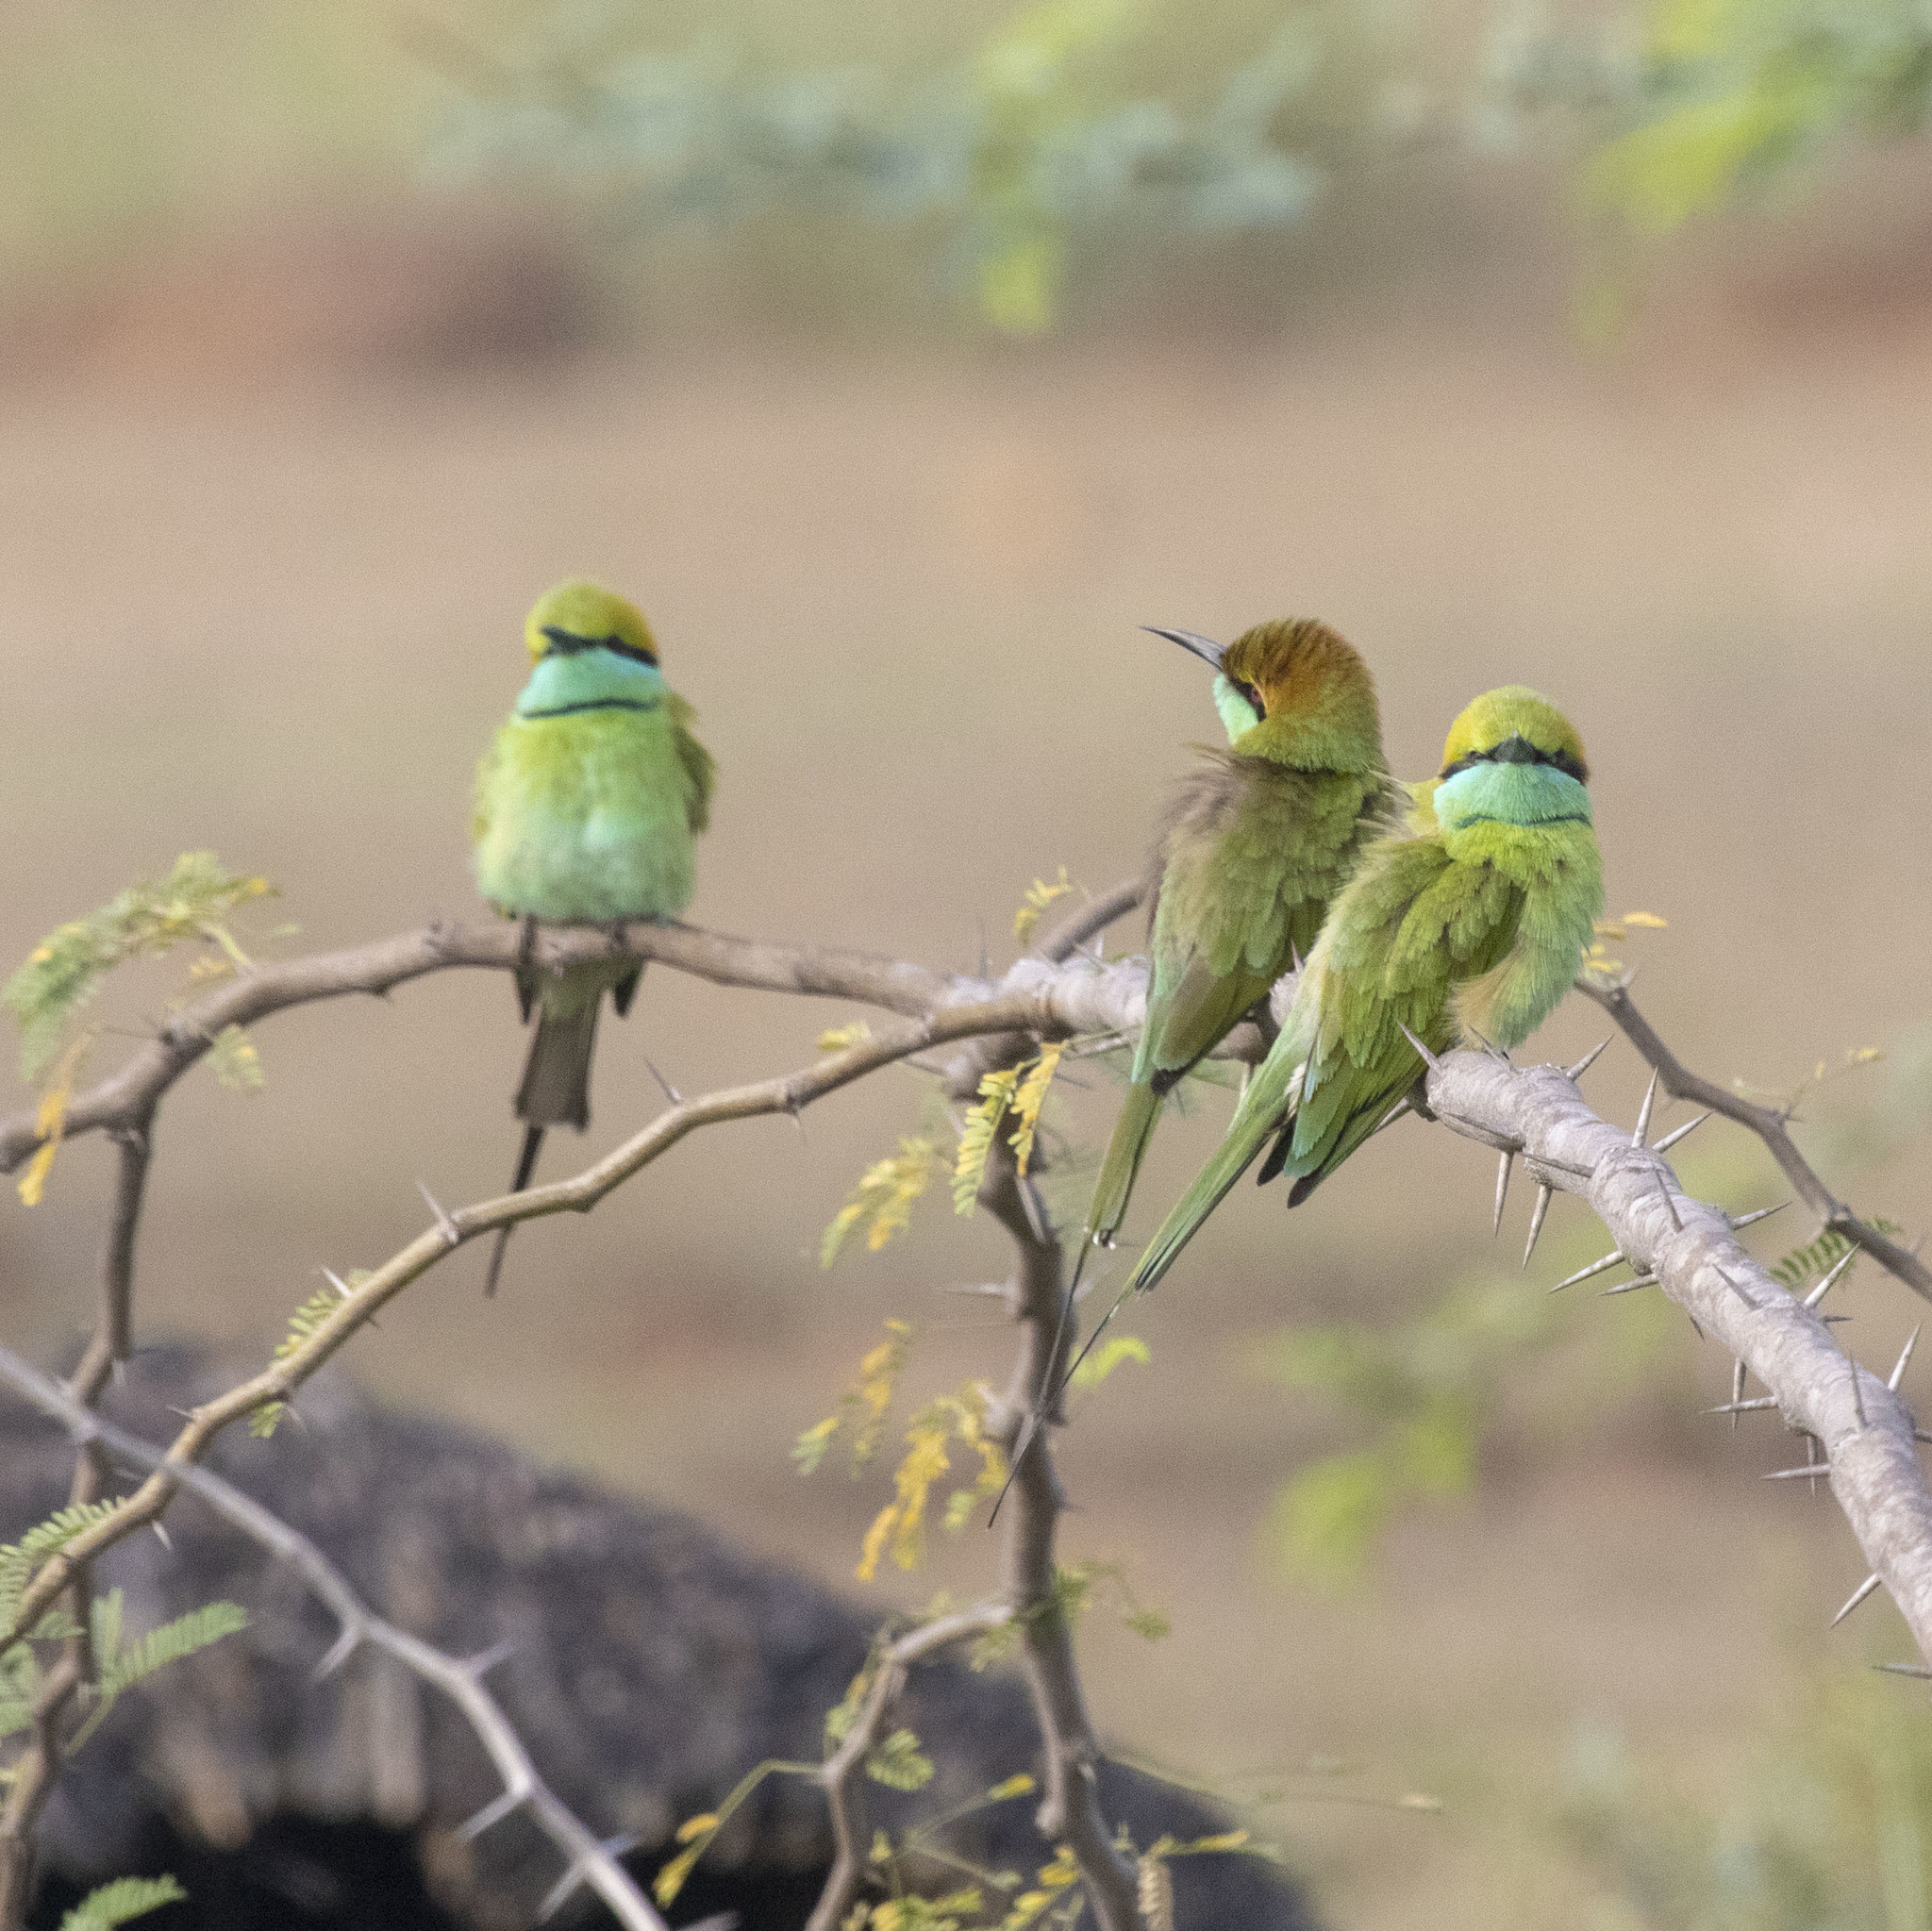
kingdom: Animalia
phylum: Chordata
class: Aves
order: Coraciiformes
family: Meropidae
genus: Merops
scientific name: Merops orientalis
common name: Green bee-eater
